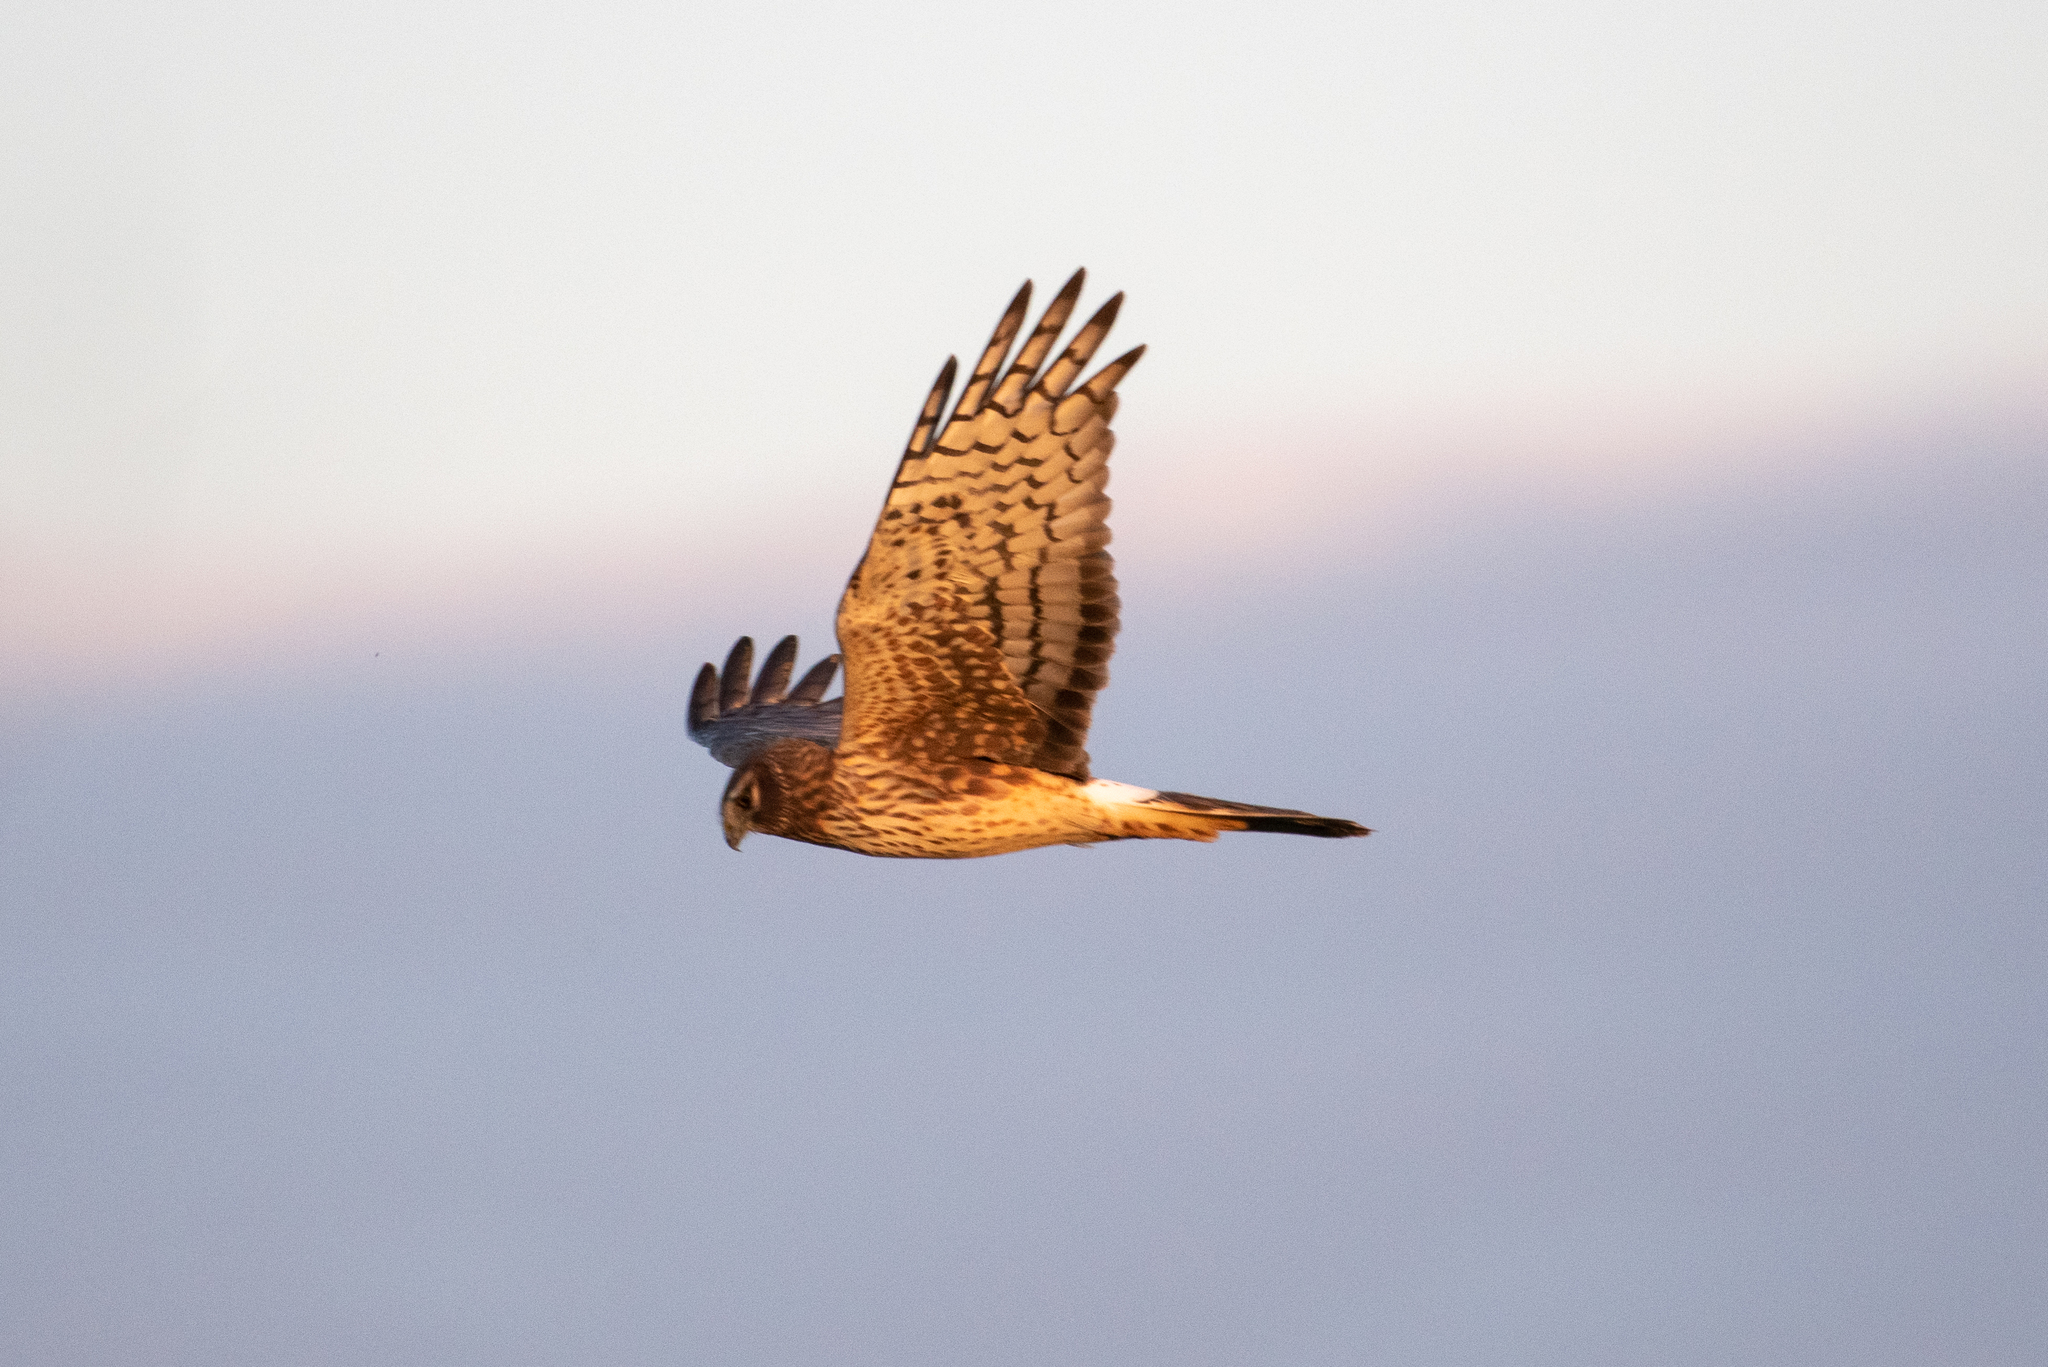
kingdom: Animalia
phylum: Chordata
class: Aves
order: Accipitriformes
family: Accipitridae
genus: Circus
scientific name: Circus cyaneus
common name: Hen harrier
